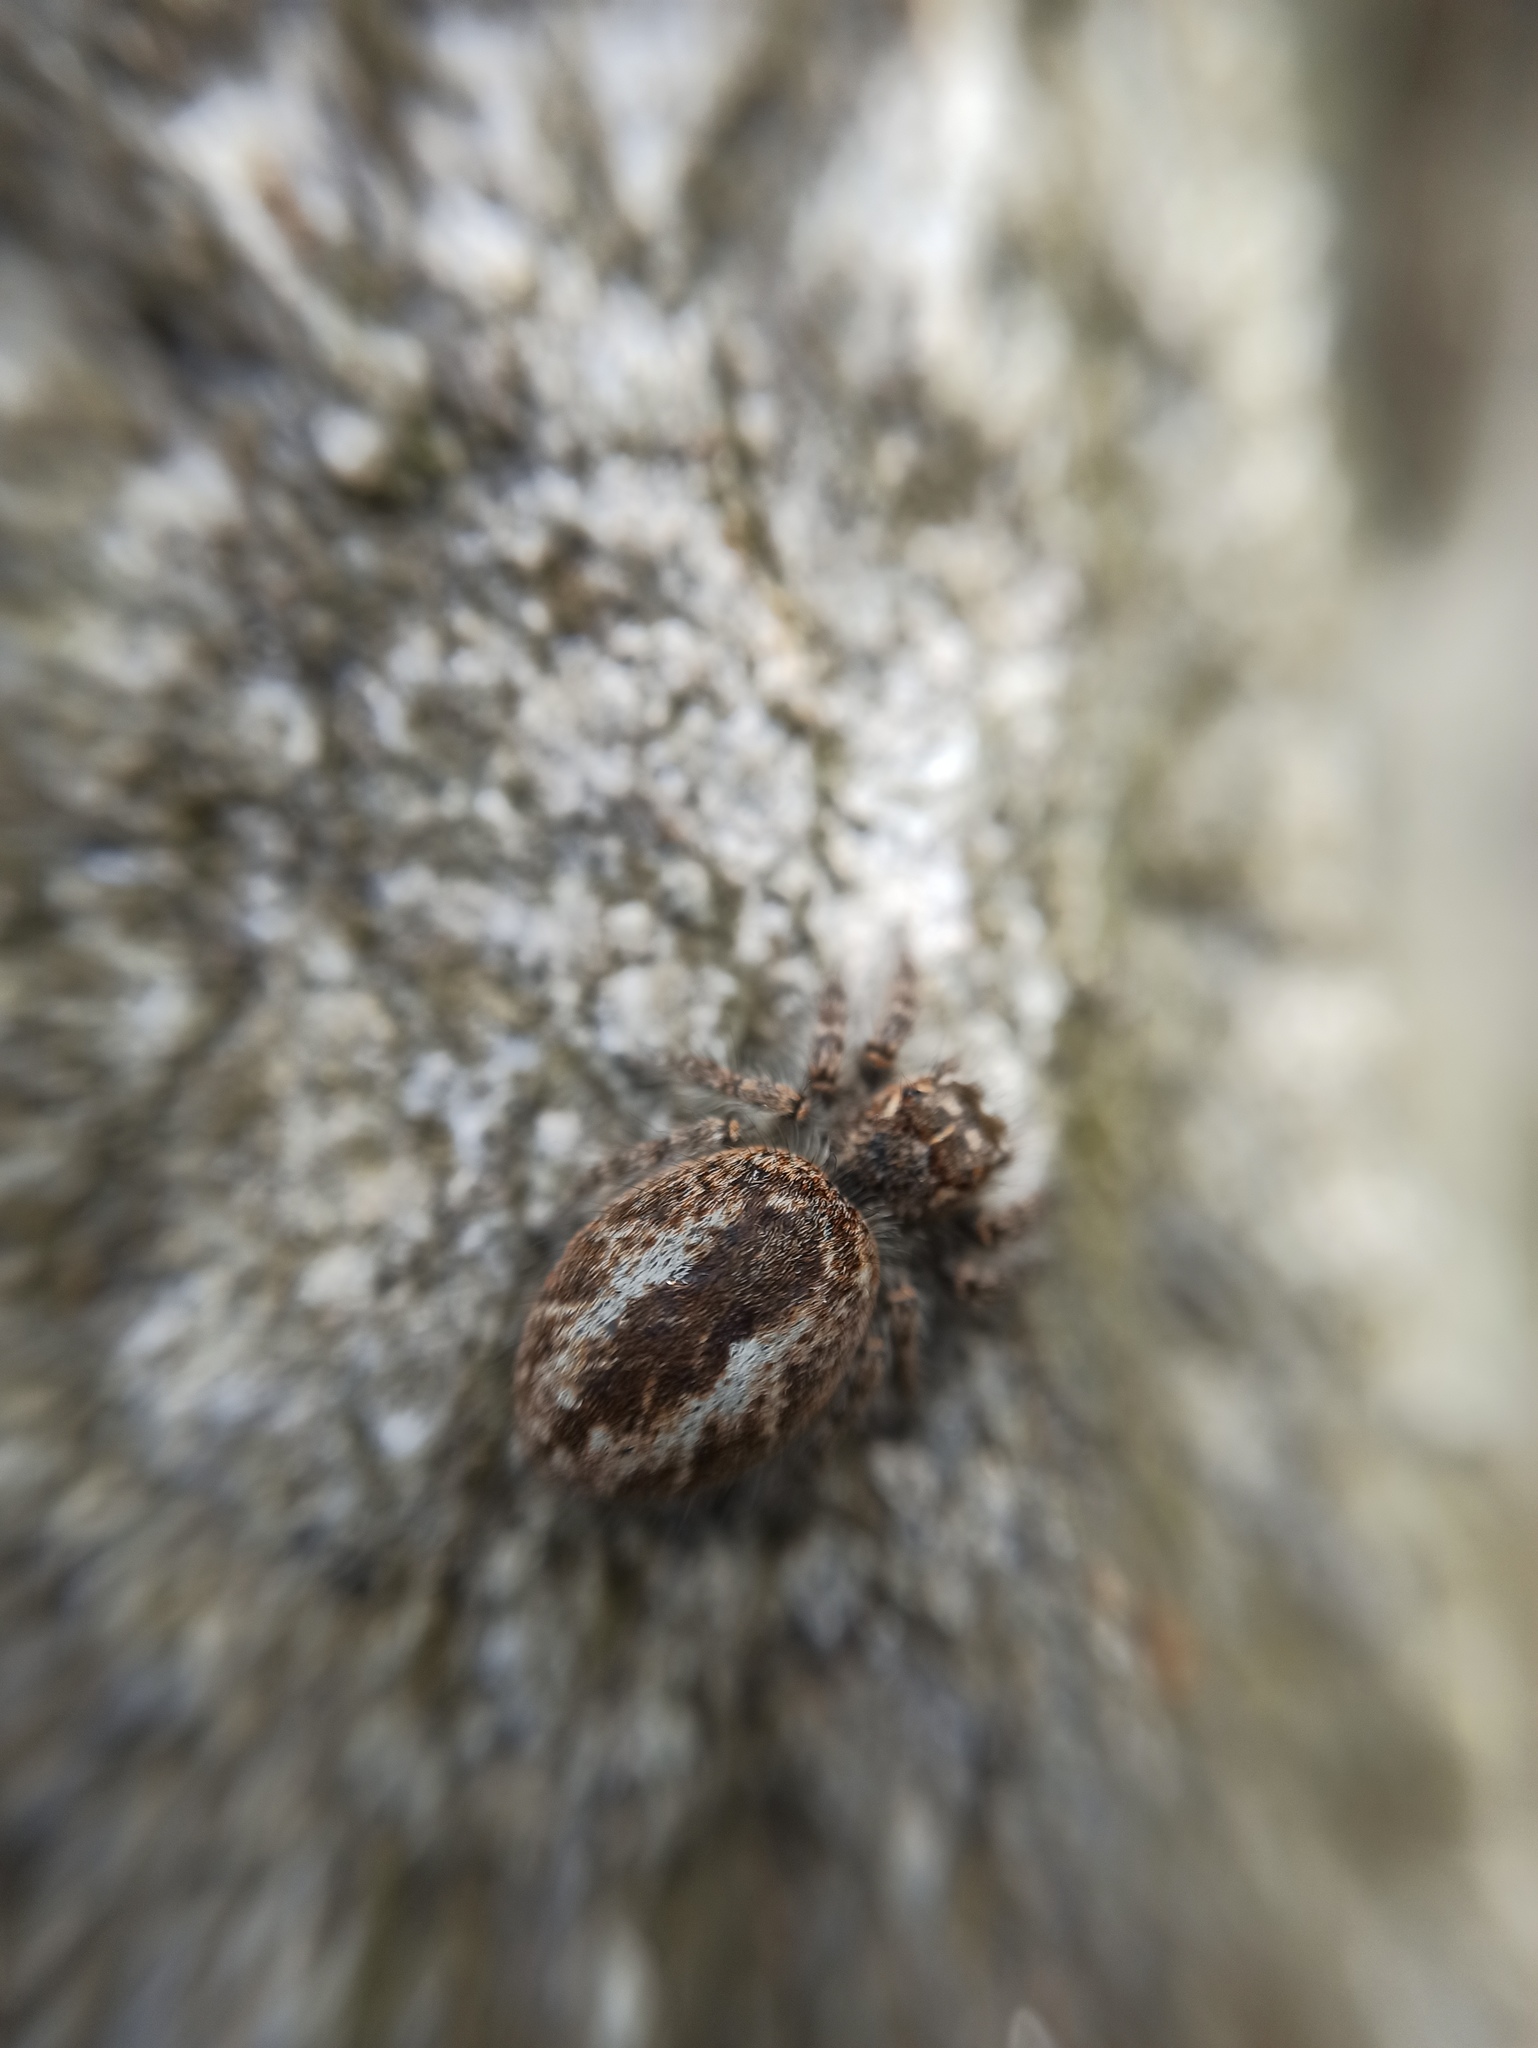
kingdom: Animalia
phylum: Arthropoda
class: Arachnida
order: Araneae
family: Salticidae
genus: Philaeus
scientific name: Philaeus chrysops
